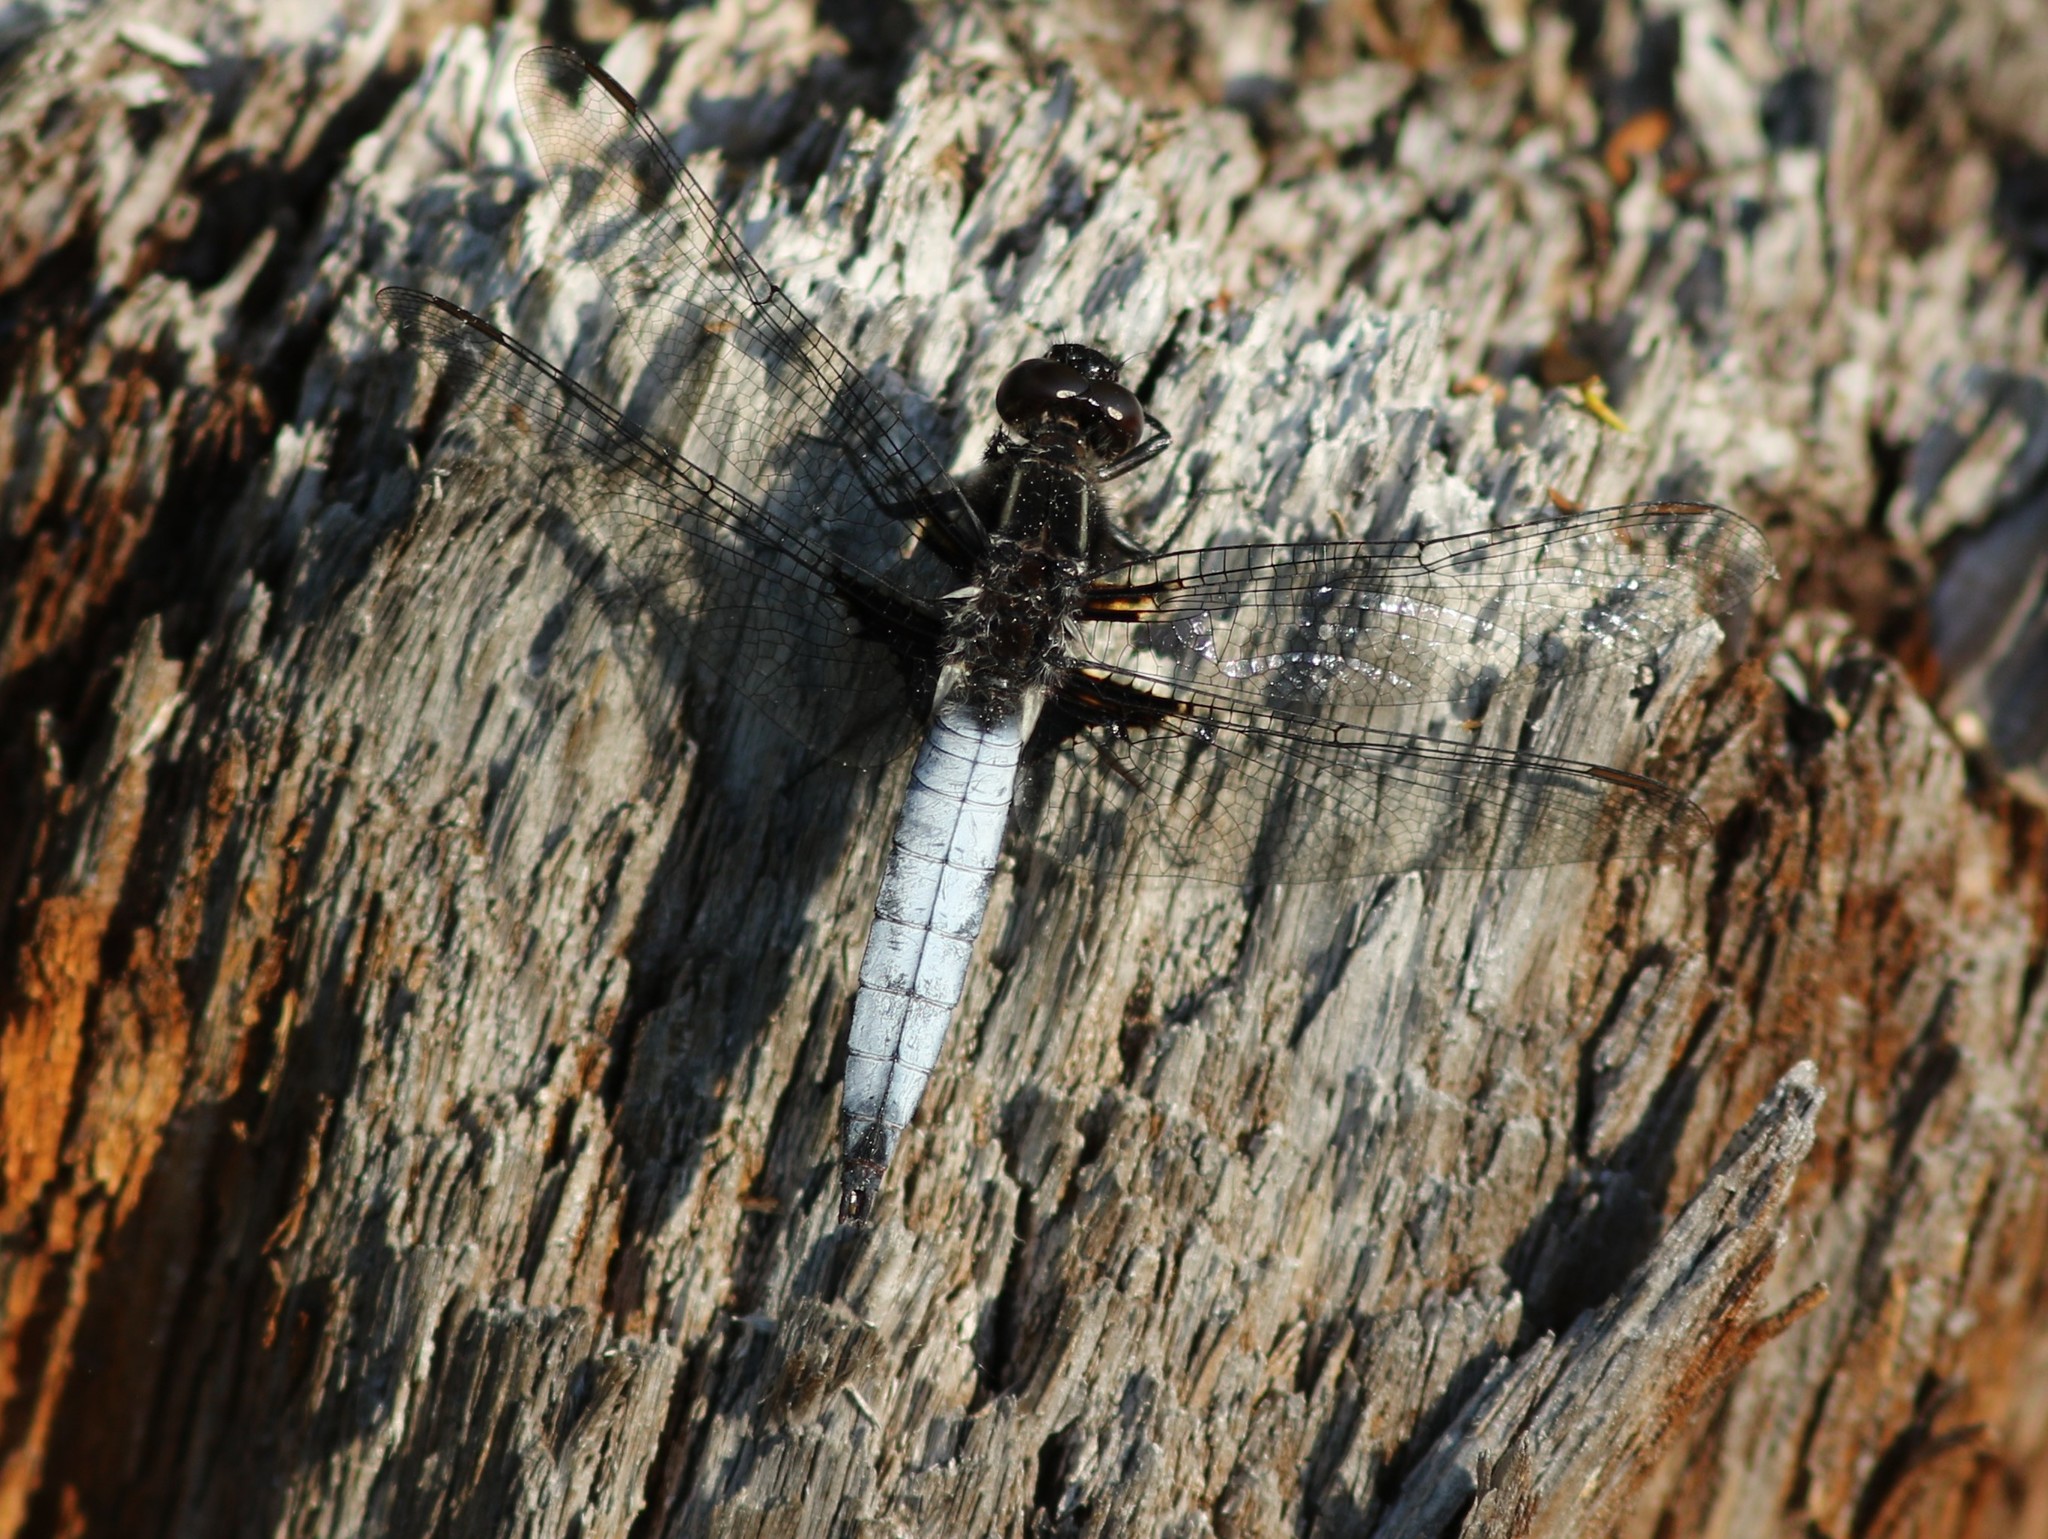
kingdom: Animalia
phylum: Arthropoda
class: Insecta
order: Odonata
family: Libellulidae
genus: Ladona
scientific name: Ladona exusta
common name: Libellule embrasée
